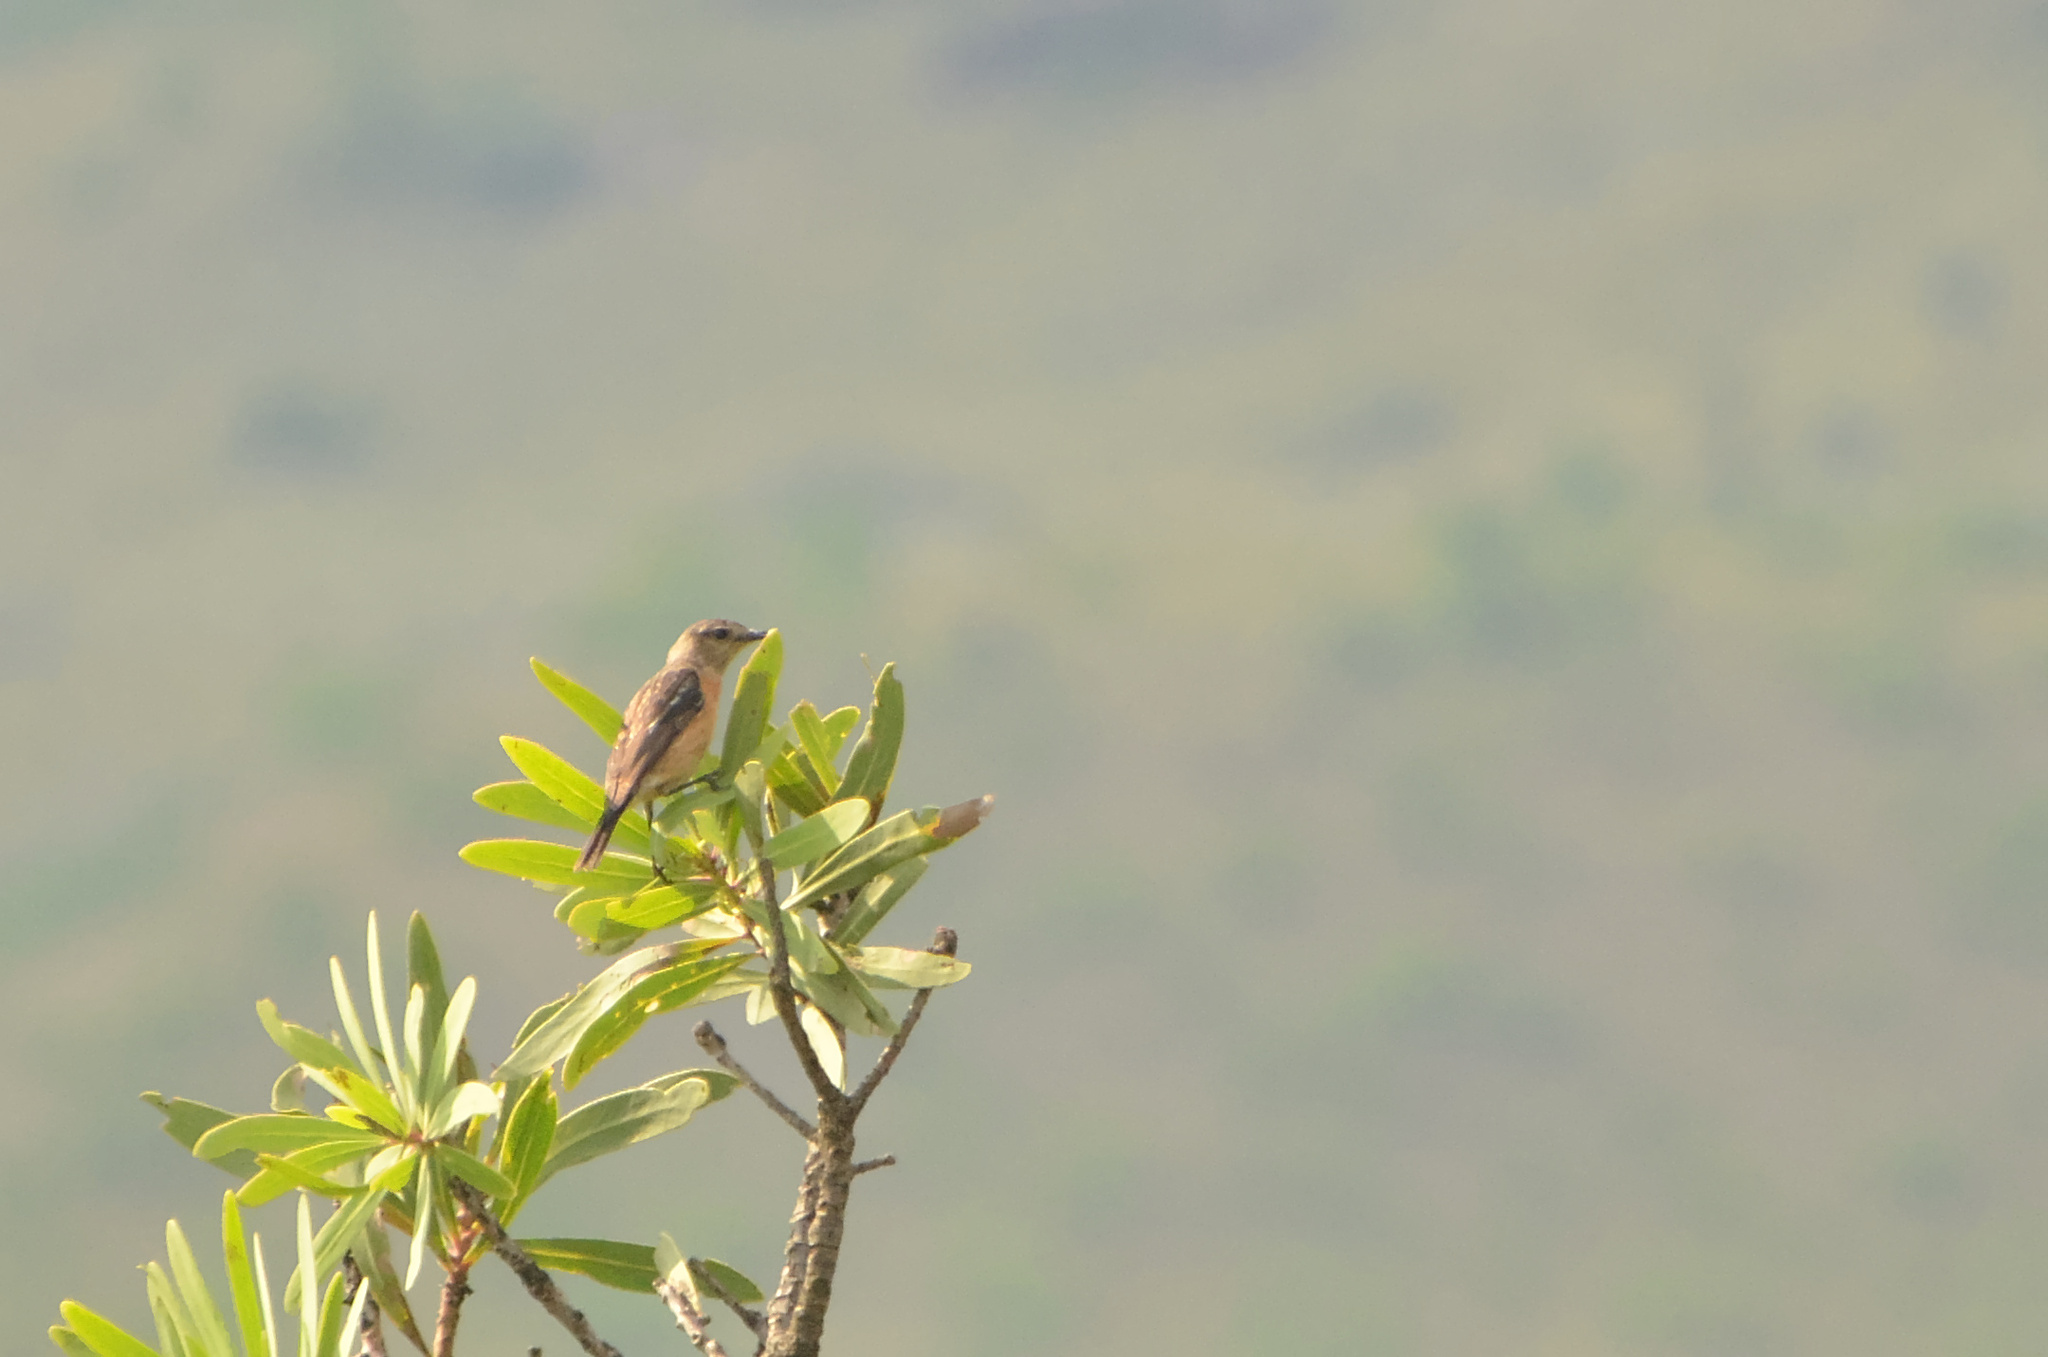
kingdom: Animalia
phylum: Chordata
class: Aves
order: Passeriformes
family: Muscicapidae
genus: Saxicola
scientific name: Saxicola torquatus
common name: African stonechat
